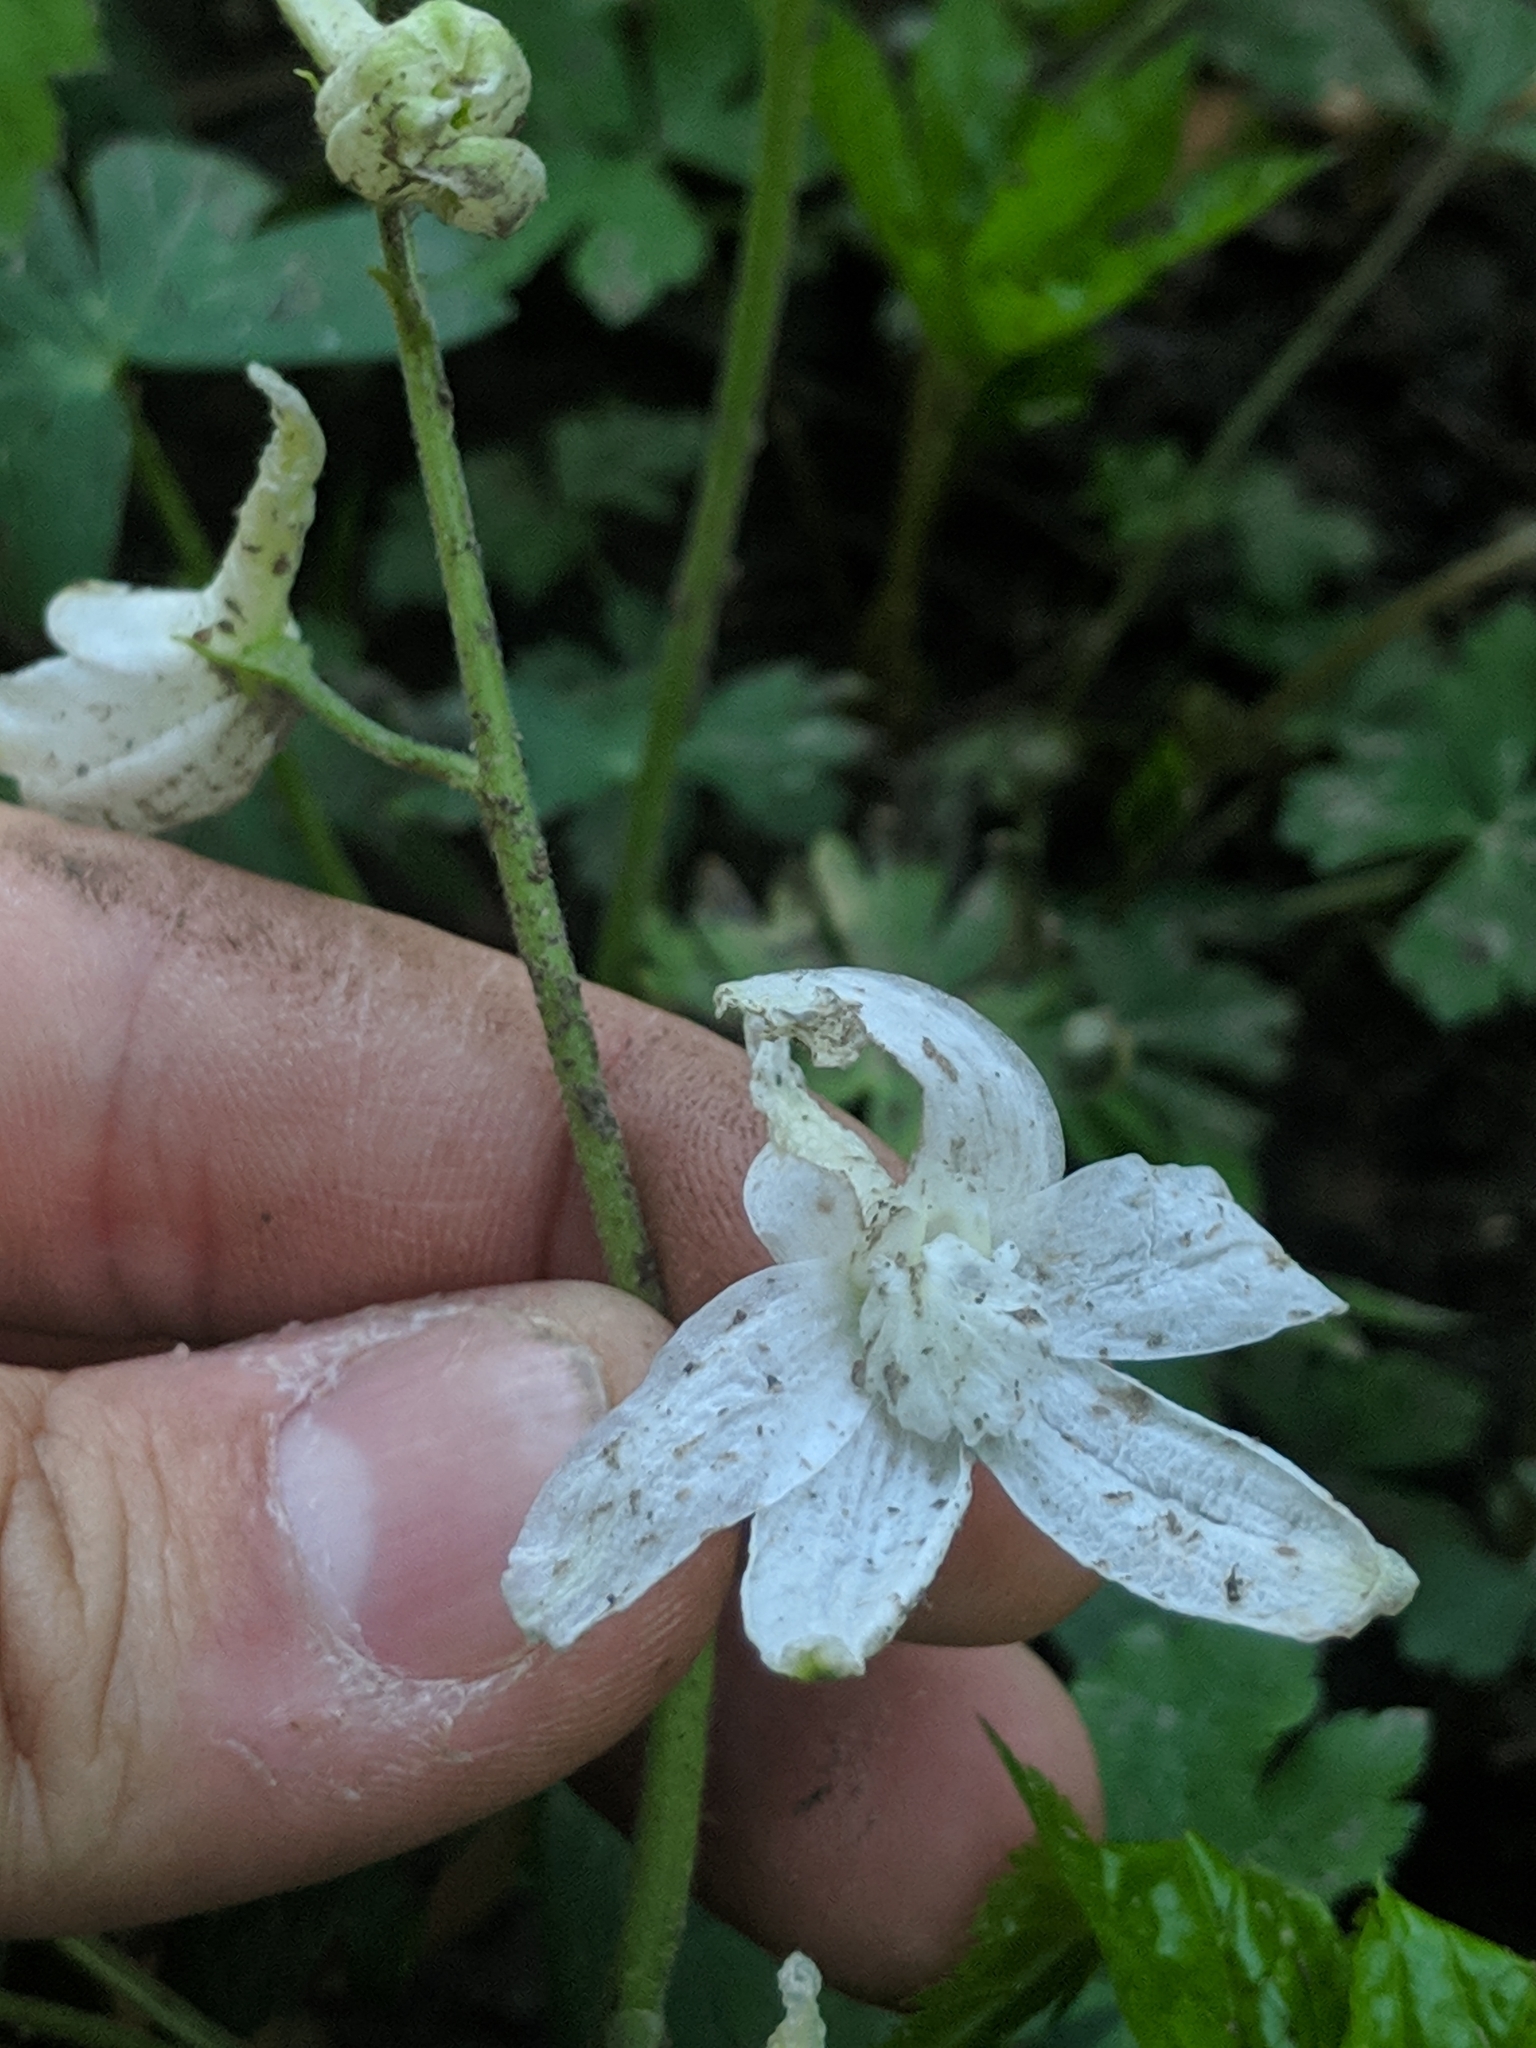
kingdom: Plantae
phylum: Tracheophyta
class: Magnoliopsida
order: Ranunculales
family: Ranunculaceae
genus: Delphinium
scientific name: Delphinium tricorne
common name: Dwarf larkspur
